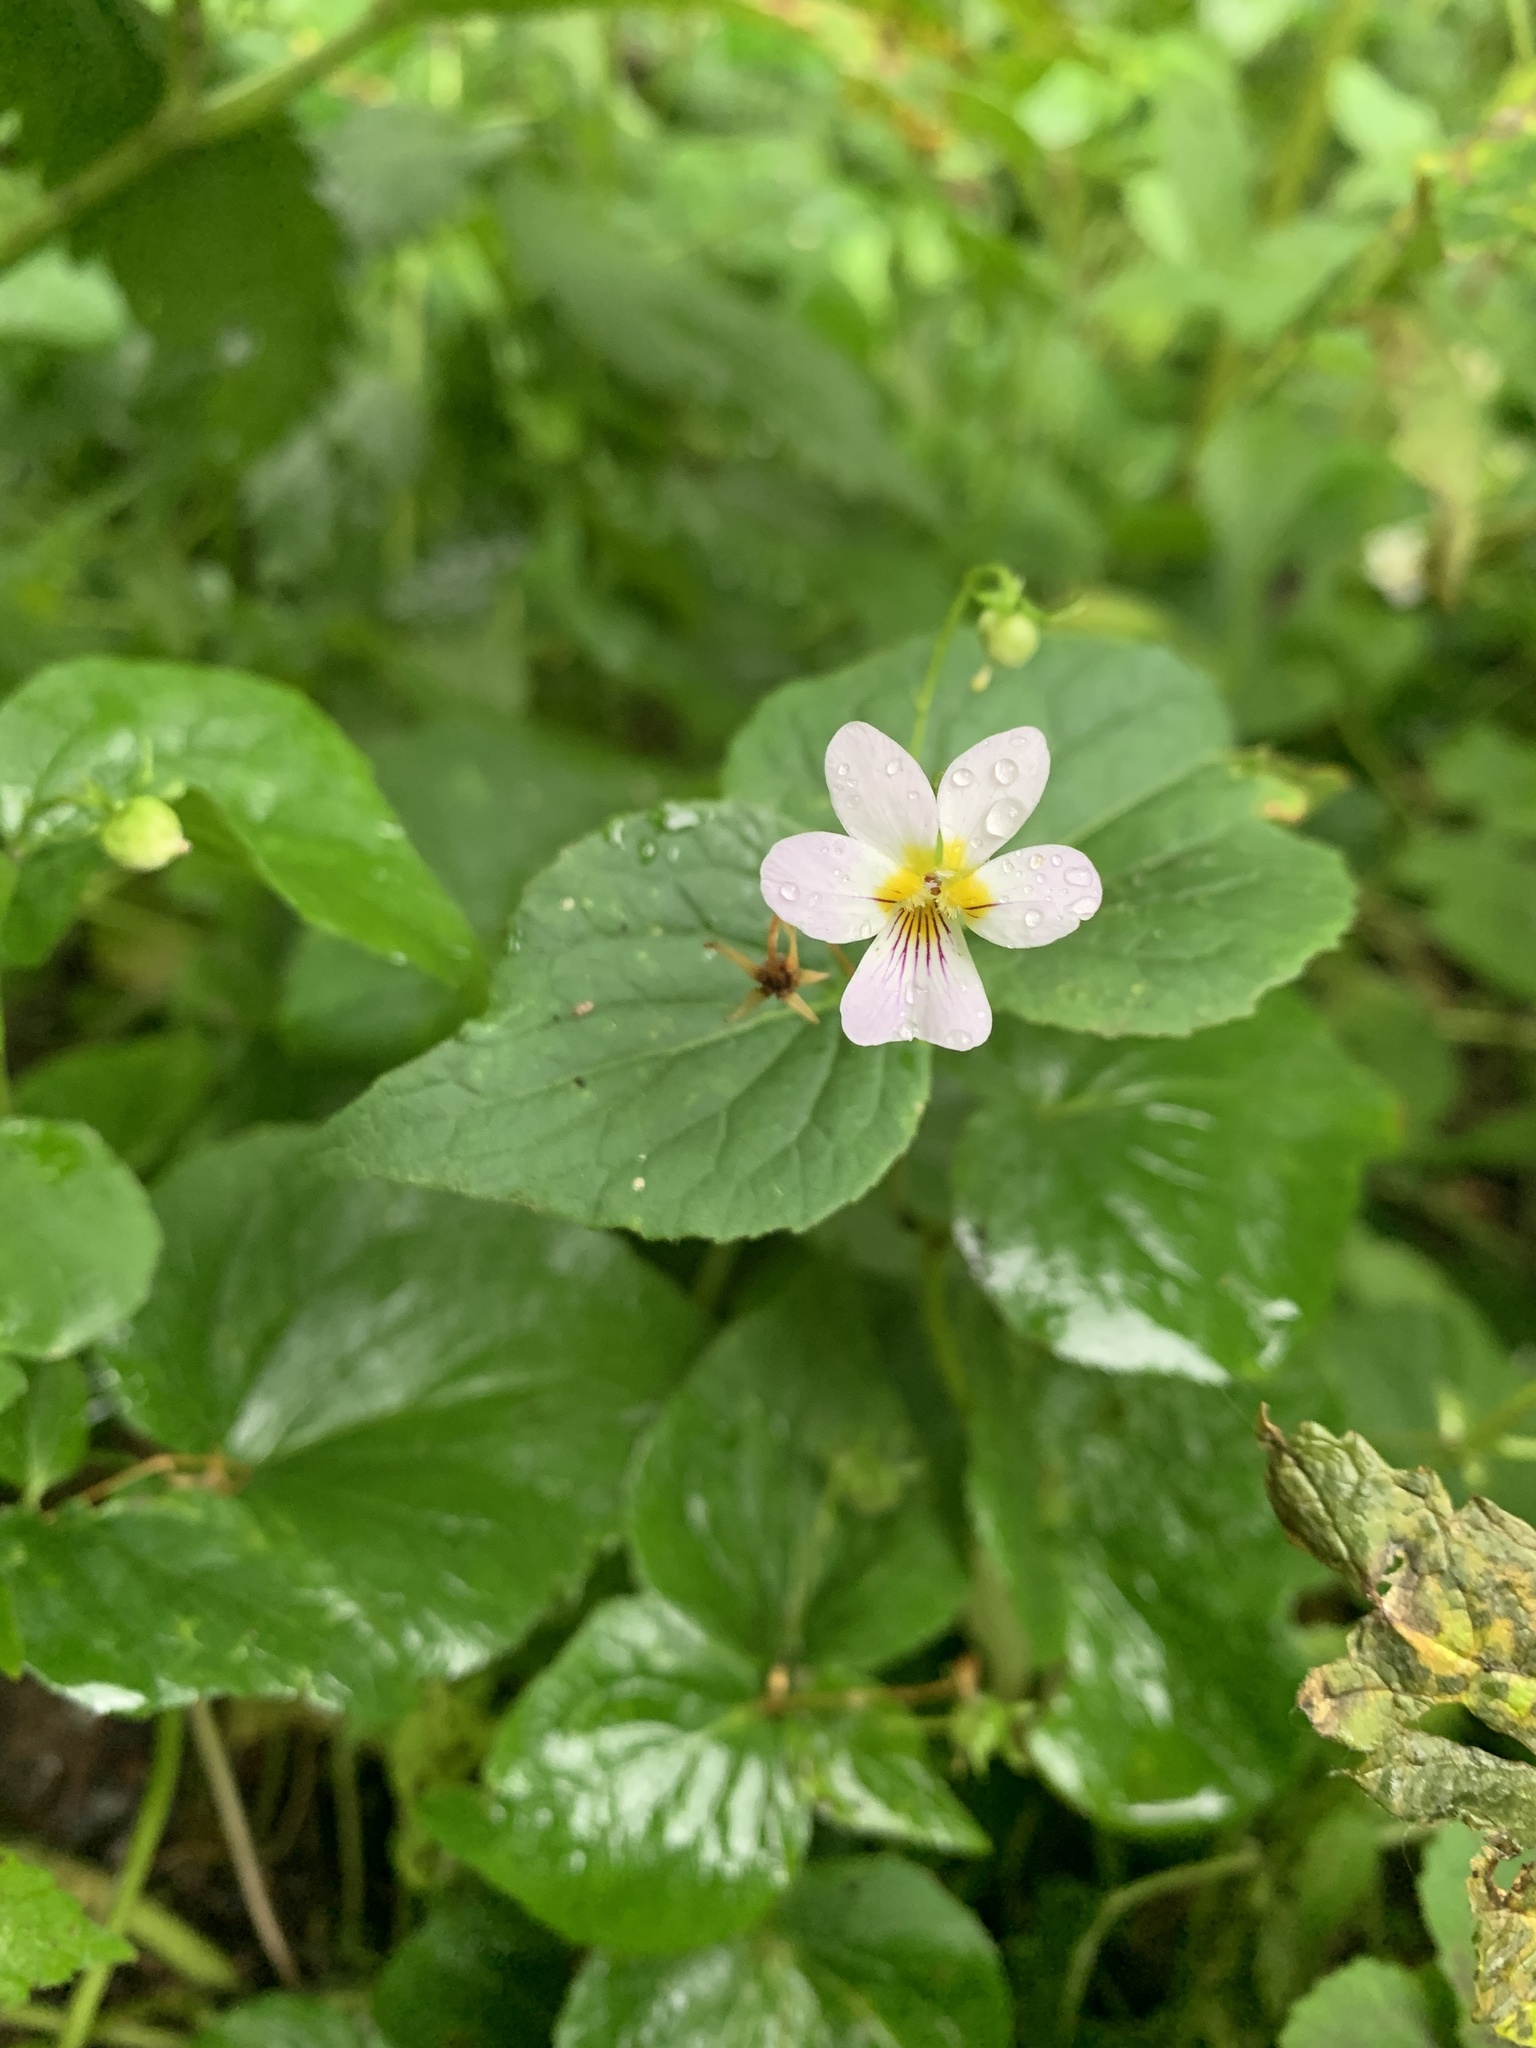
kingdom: Plantae
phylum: Tracheophyta
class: Magnoliopsida
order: Malpighiales
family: Violaceae
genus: Viola
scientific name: Viola canadensis
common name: Canada violet
